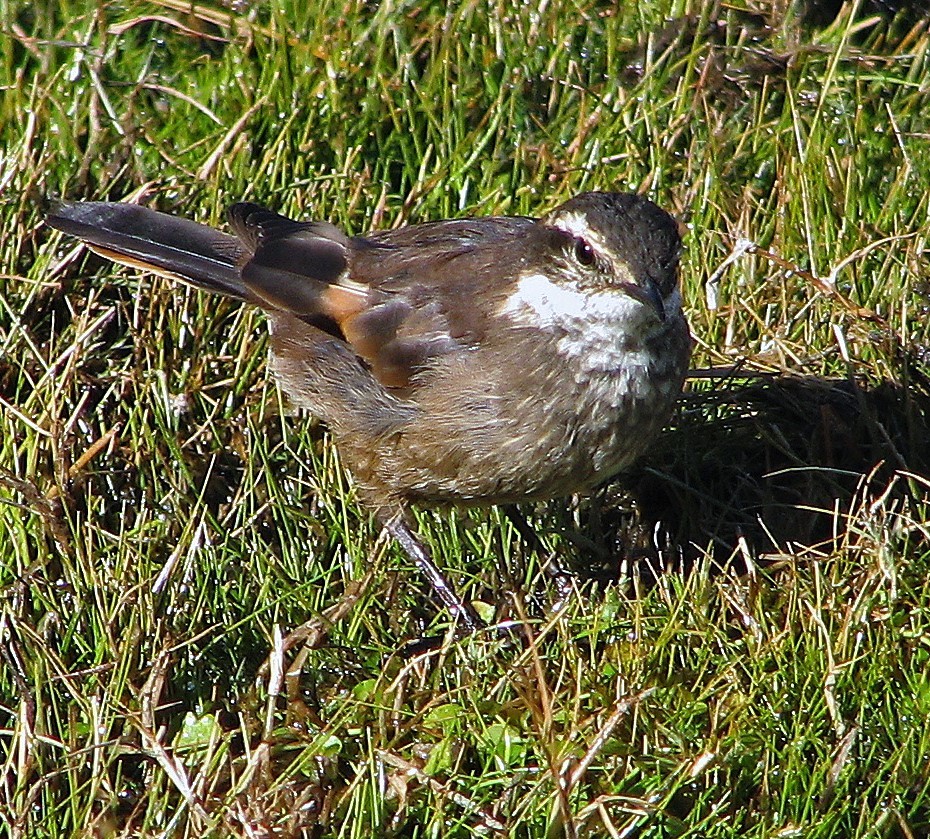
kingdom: Animalia
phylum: Chordata
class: Aves
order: Passeriformes
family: Furnariidae
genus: Cinclodes
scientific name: Cinclodes olrogi
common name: Olrog's cinclodes
